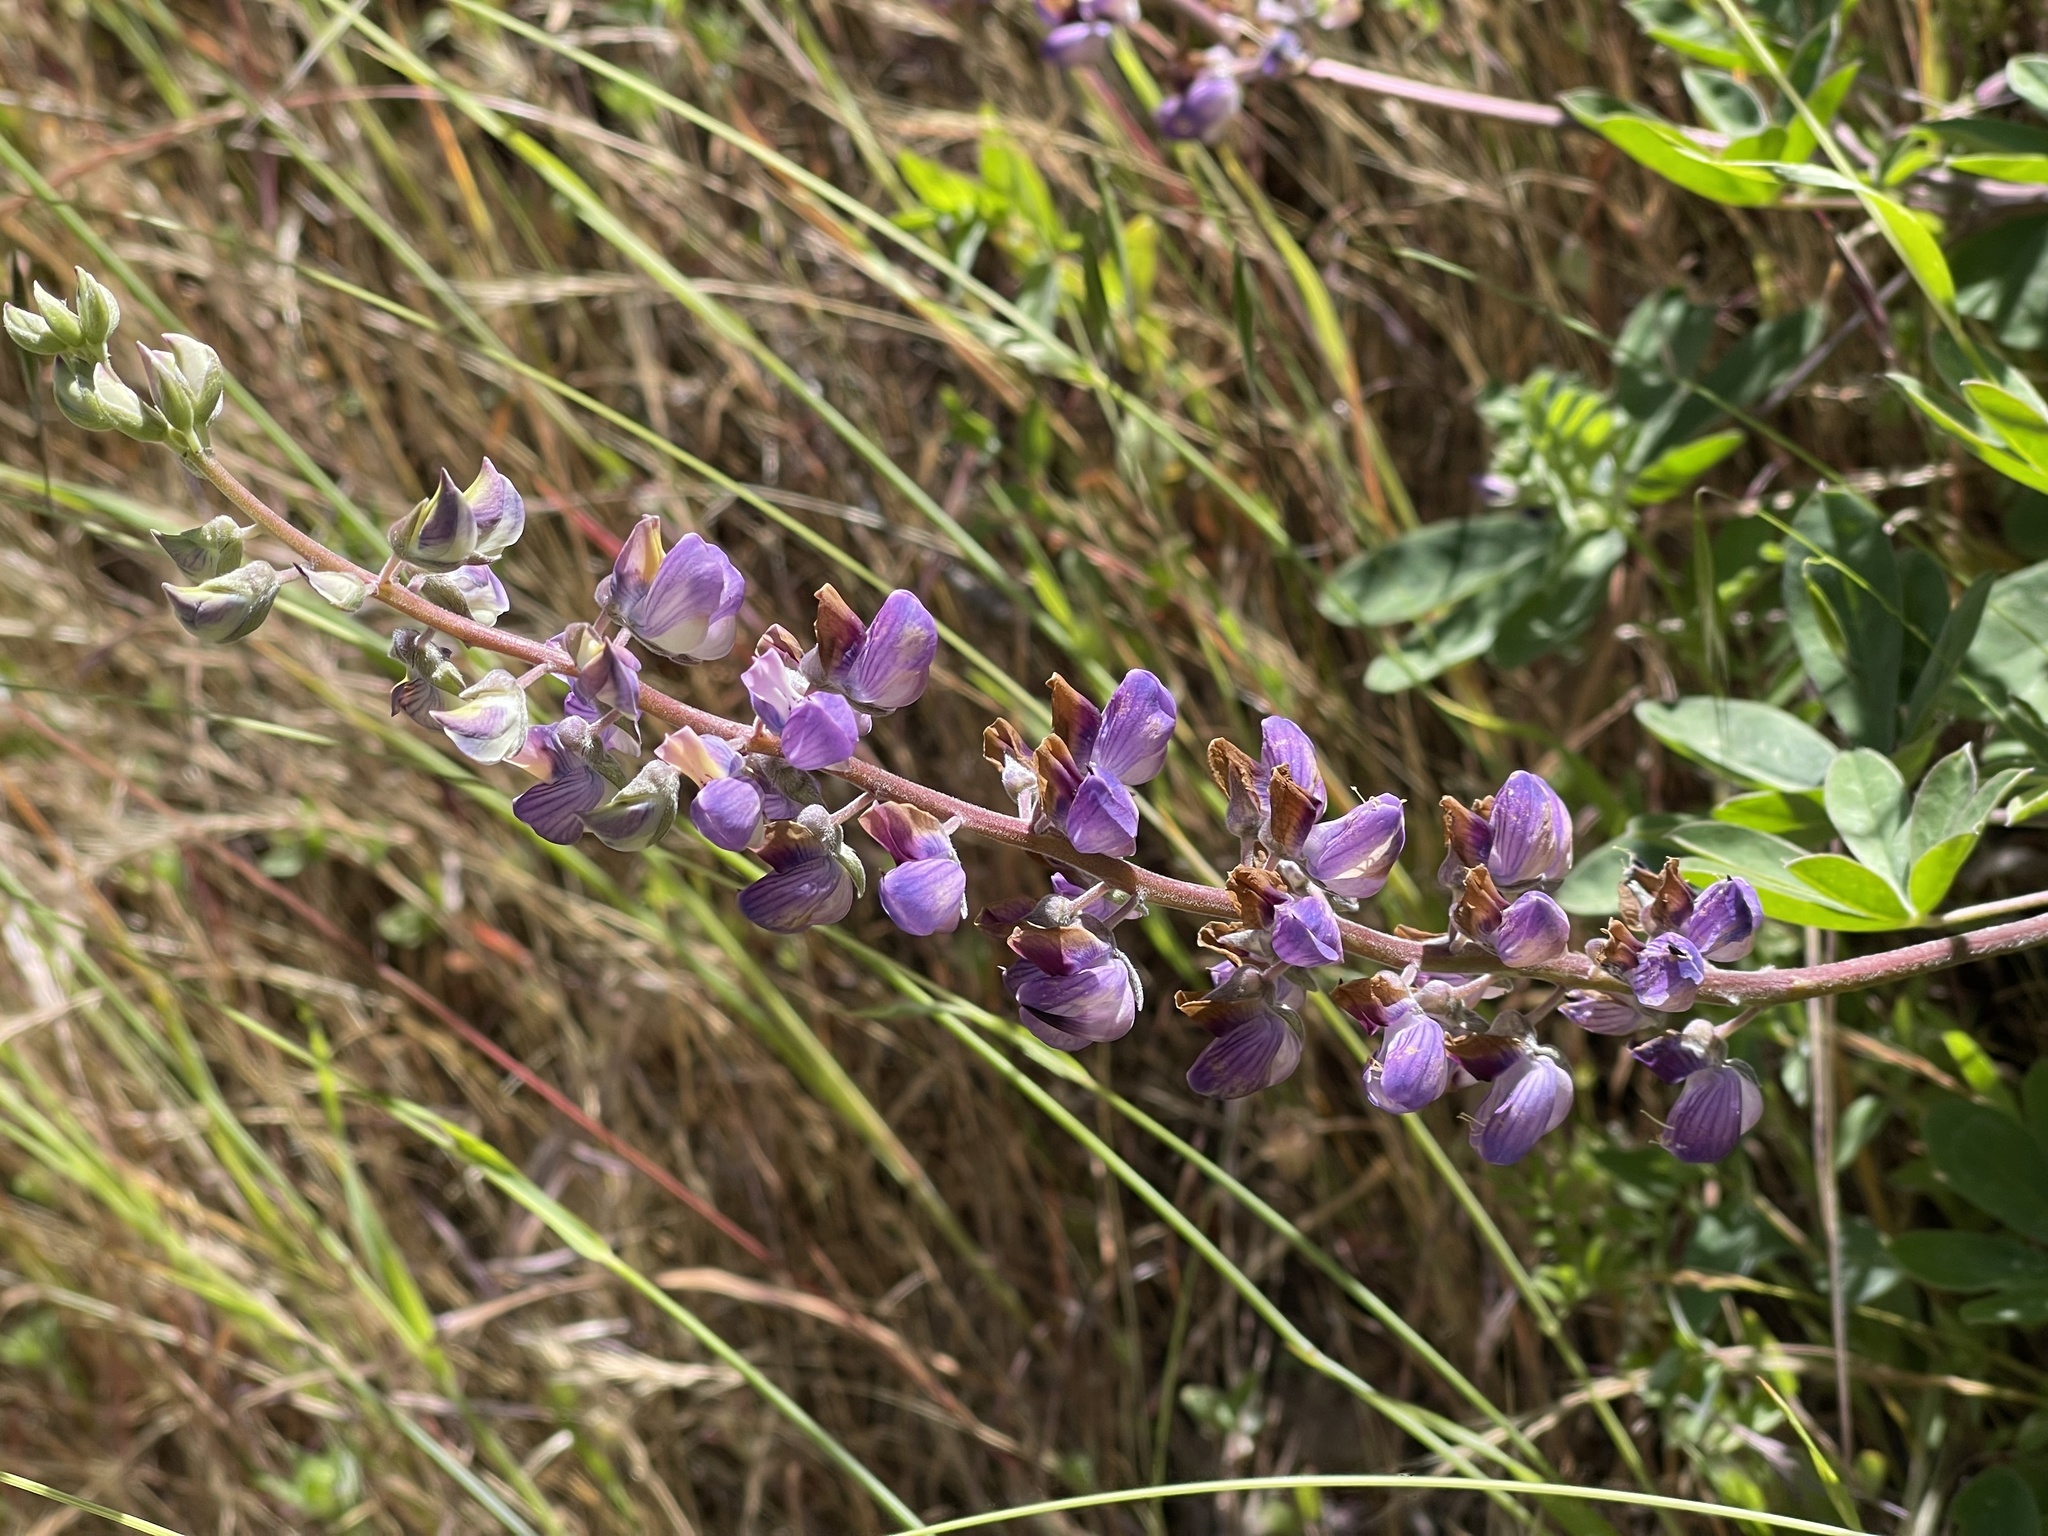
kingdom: Plantae
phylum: Tracheophyta
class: Magnoliopsida
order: Fabales
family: Fabaceae
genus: Lupinus
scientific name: Lupinus latifolius
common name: Broad-leaved lupine
